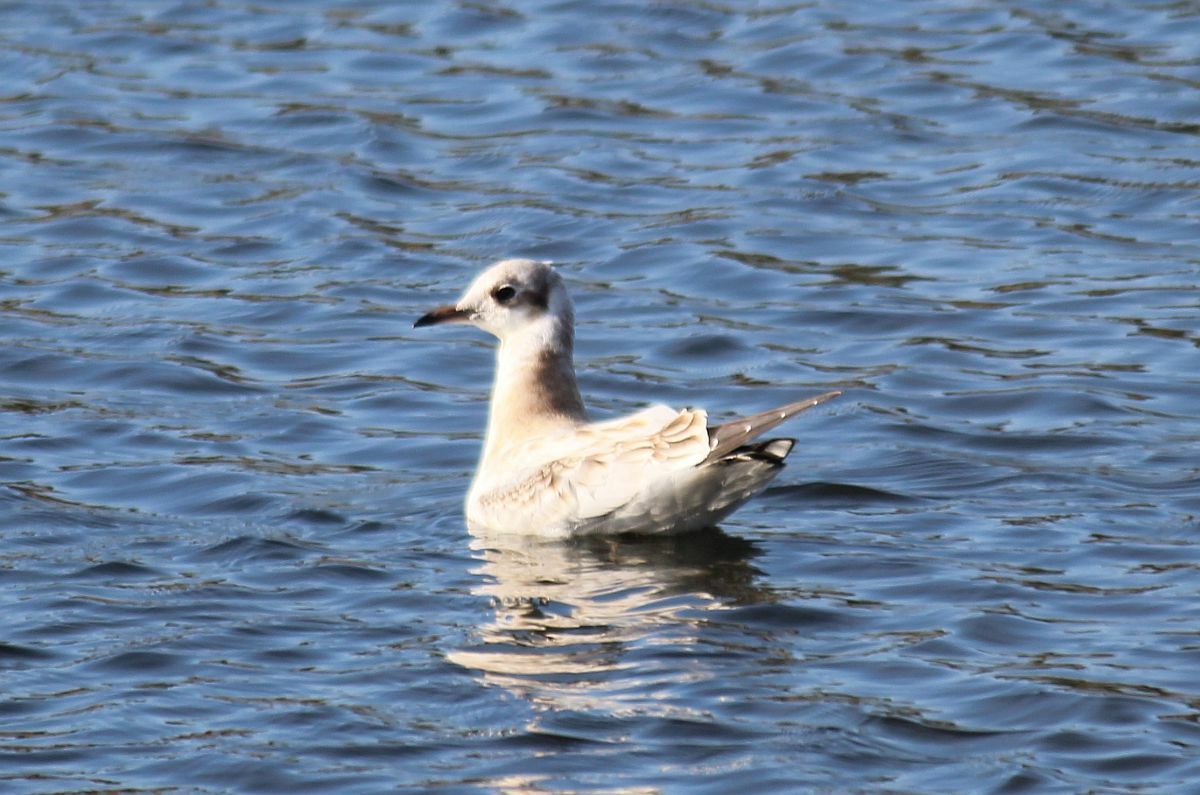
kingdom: Animalia
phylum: Chordata
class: Aves
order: Charadriiformes
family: Laridae
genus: Chroicocephalus
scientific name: Chroicocephalus ridibundus
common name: Black-headed gull
